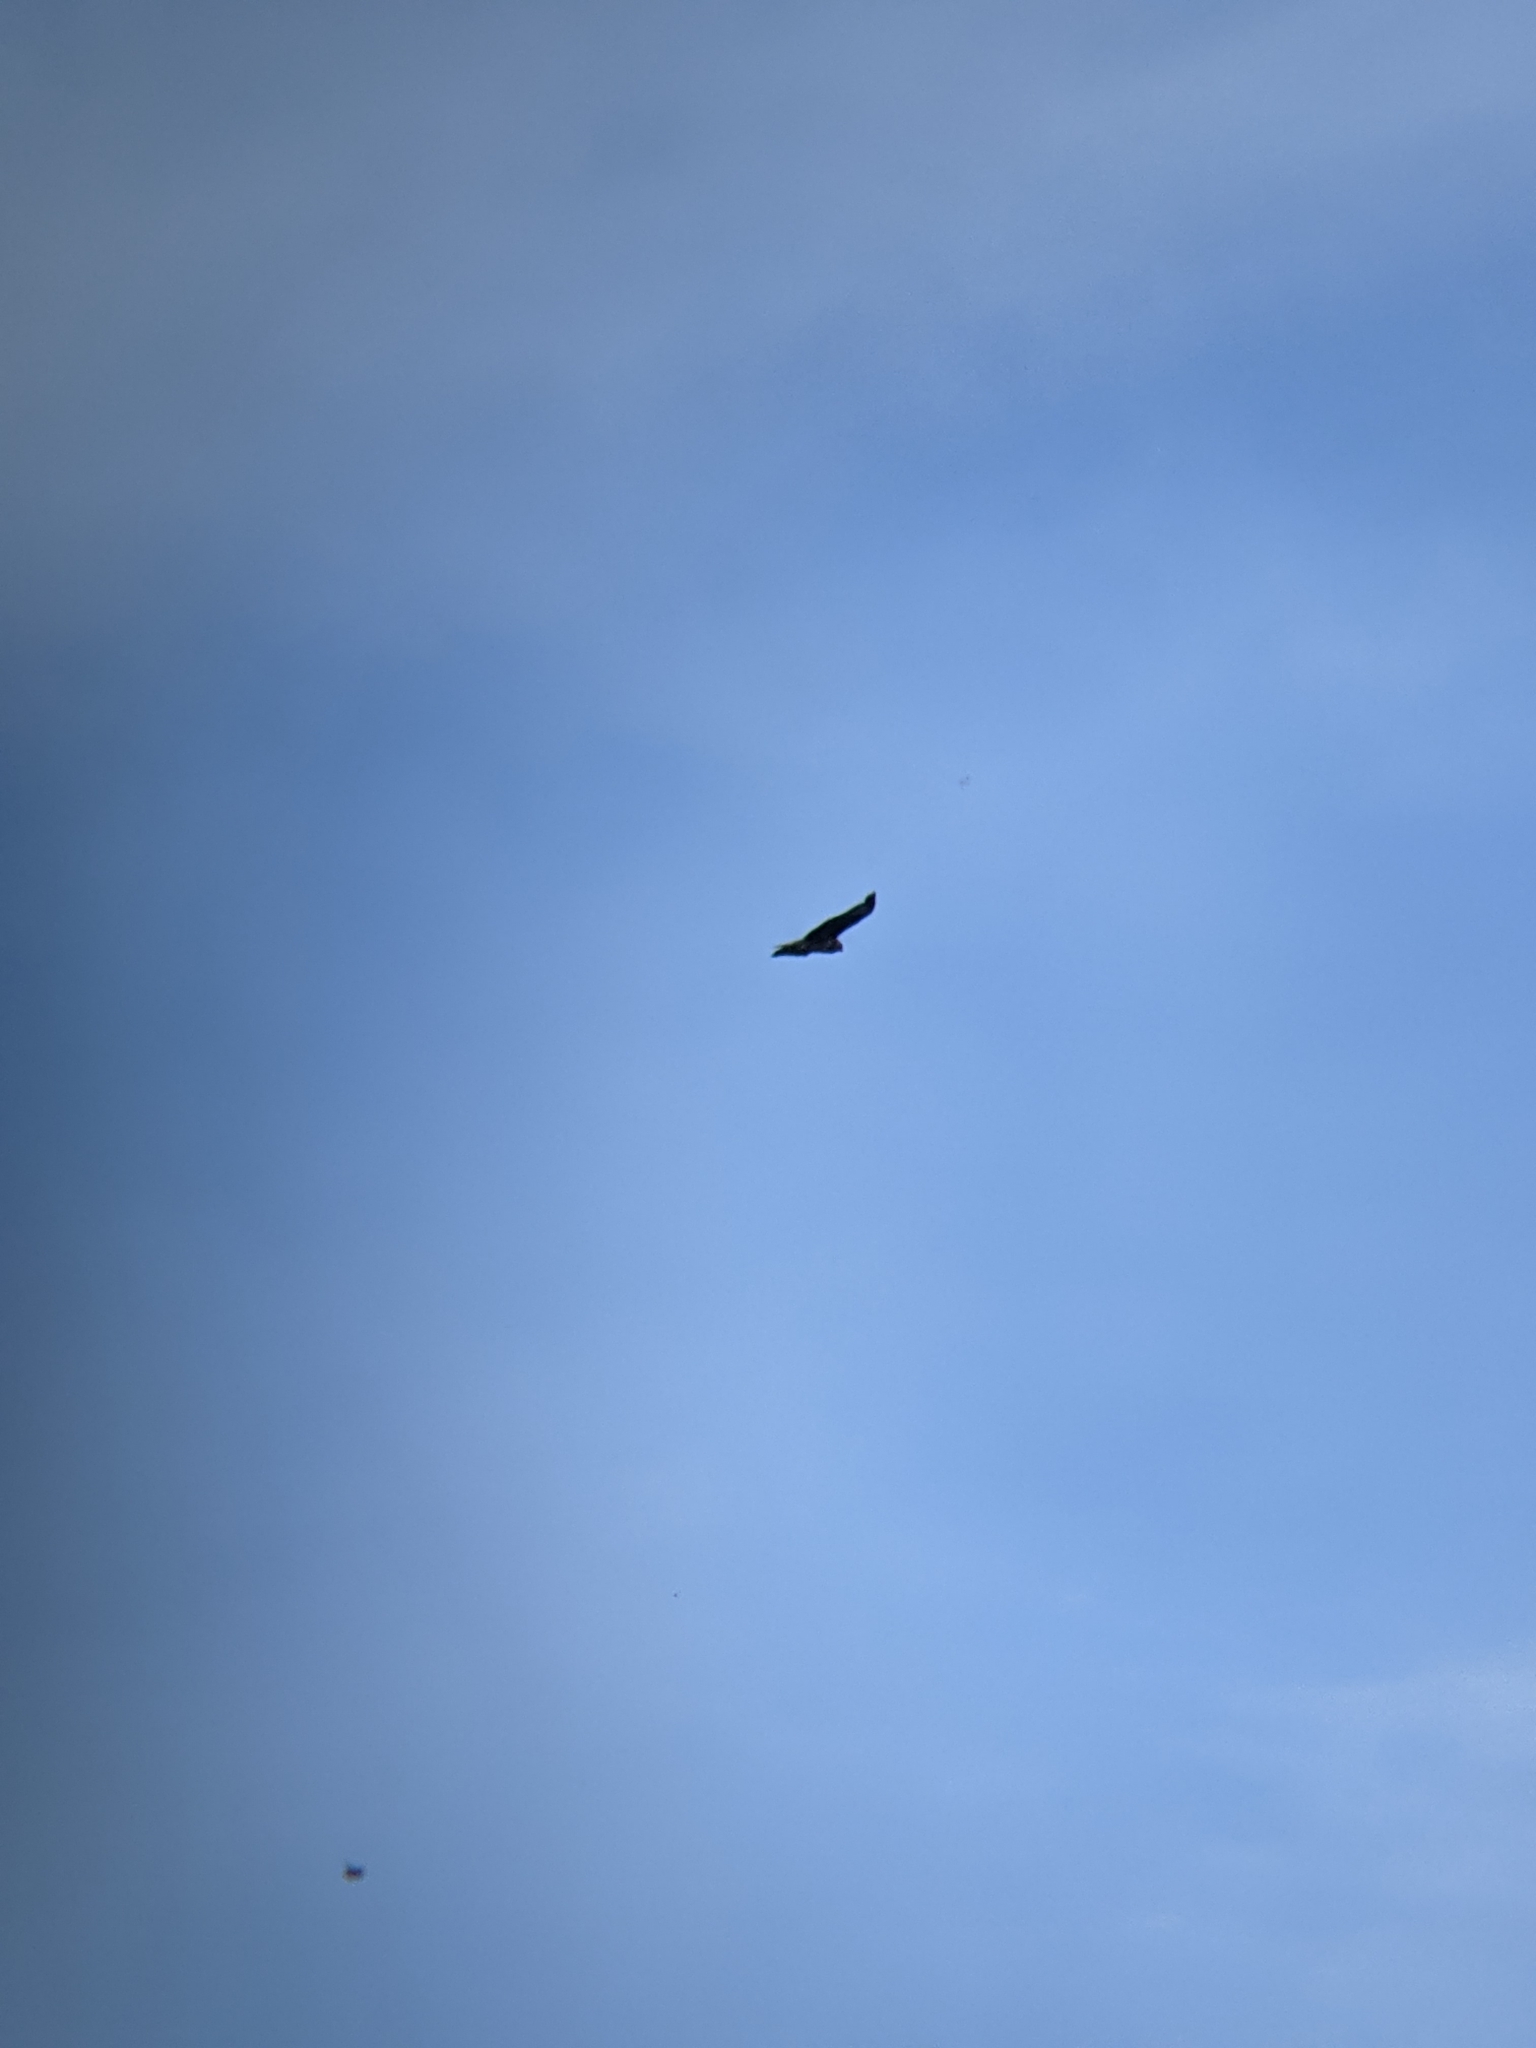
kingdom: Animalia
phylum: Chordata
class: Aves
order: Accipitriformes
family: Accipitridae
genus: Buteo
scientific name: Buteo buteo
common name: Common buzzard
